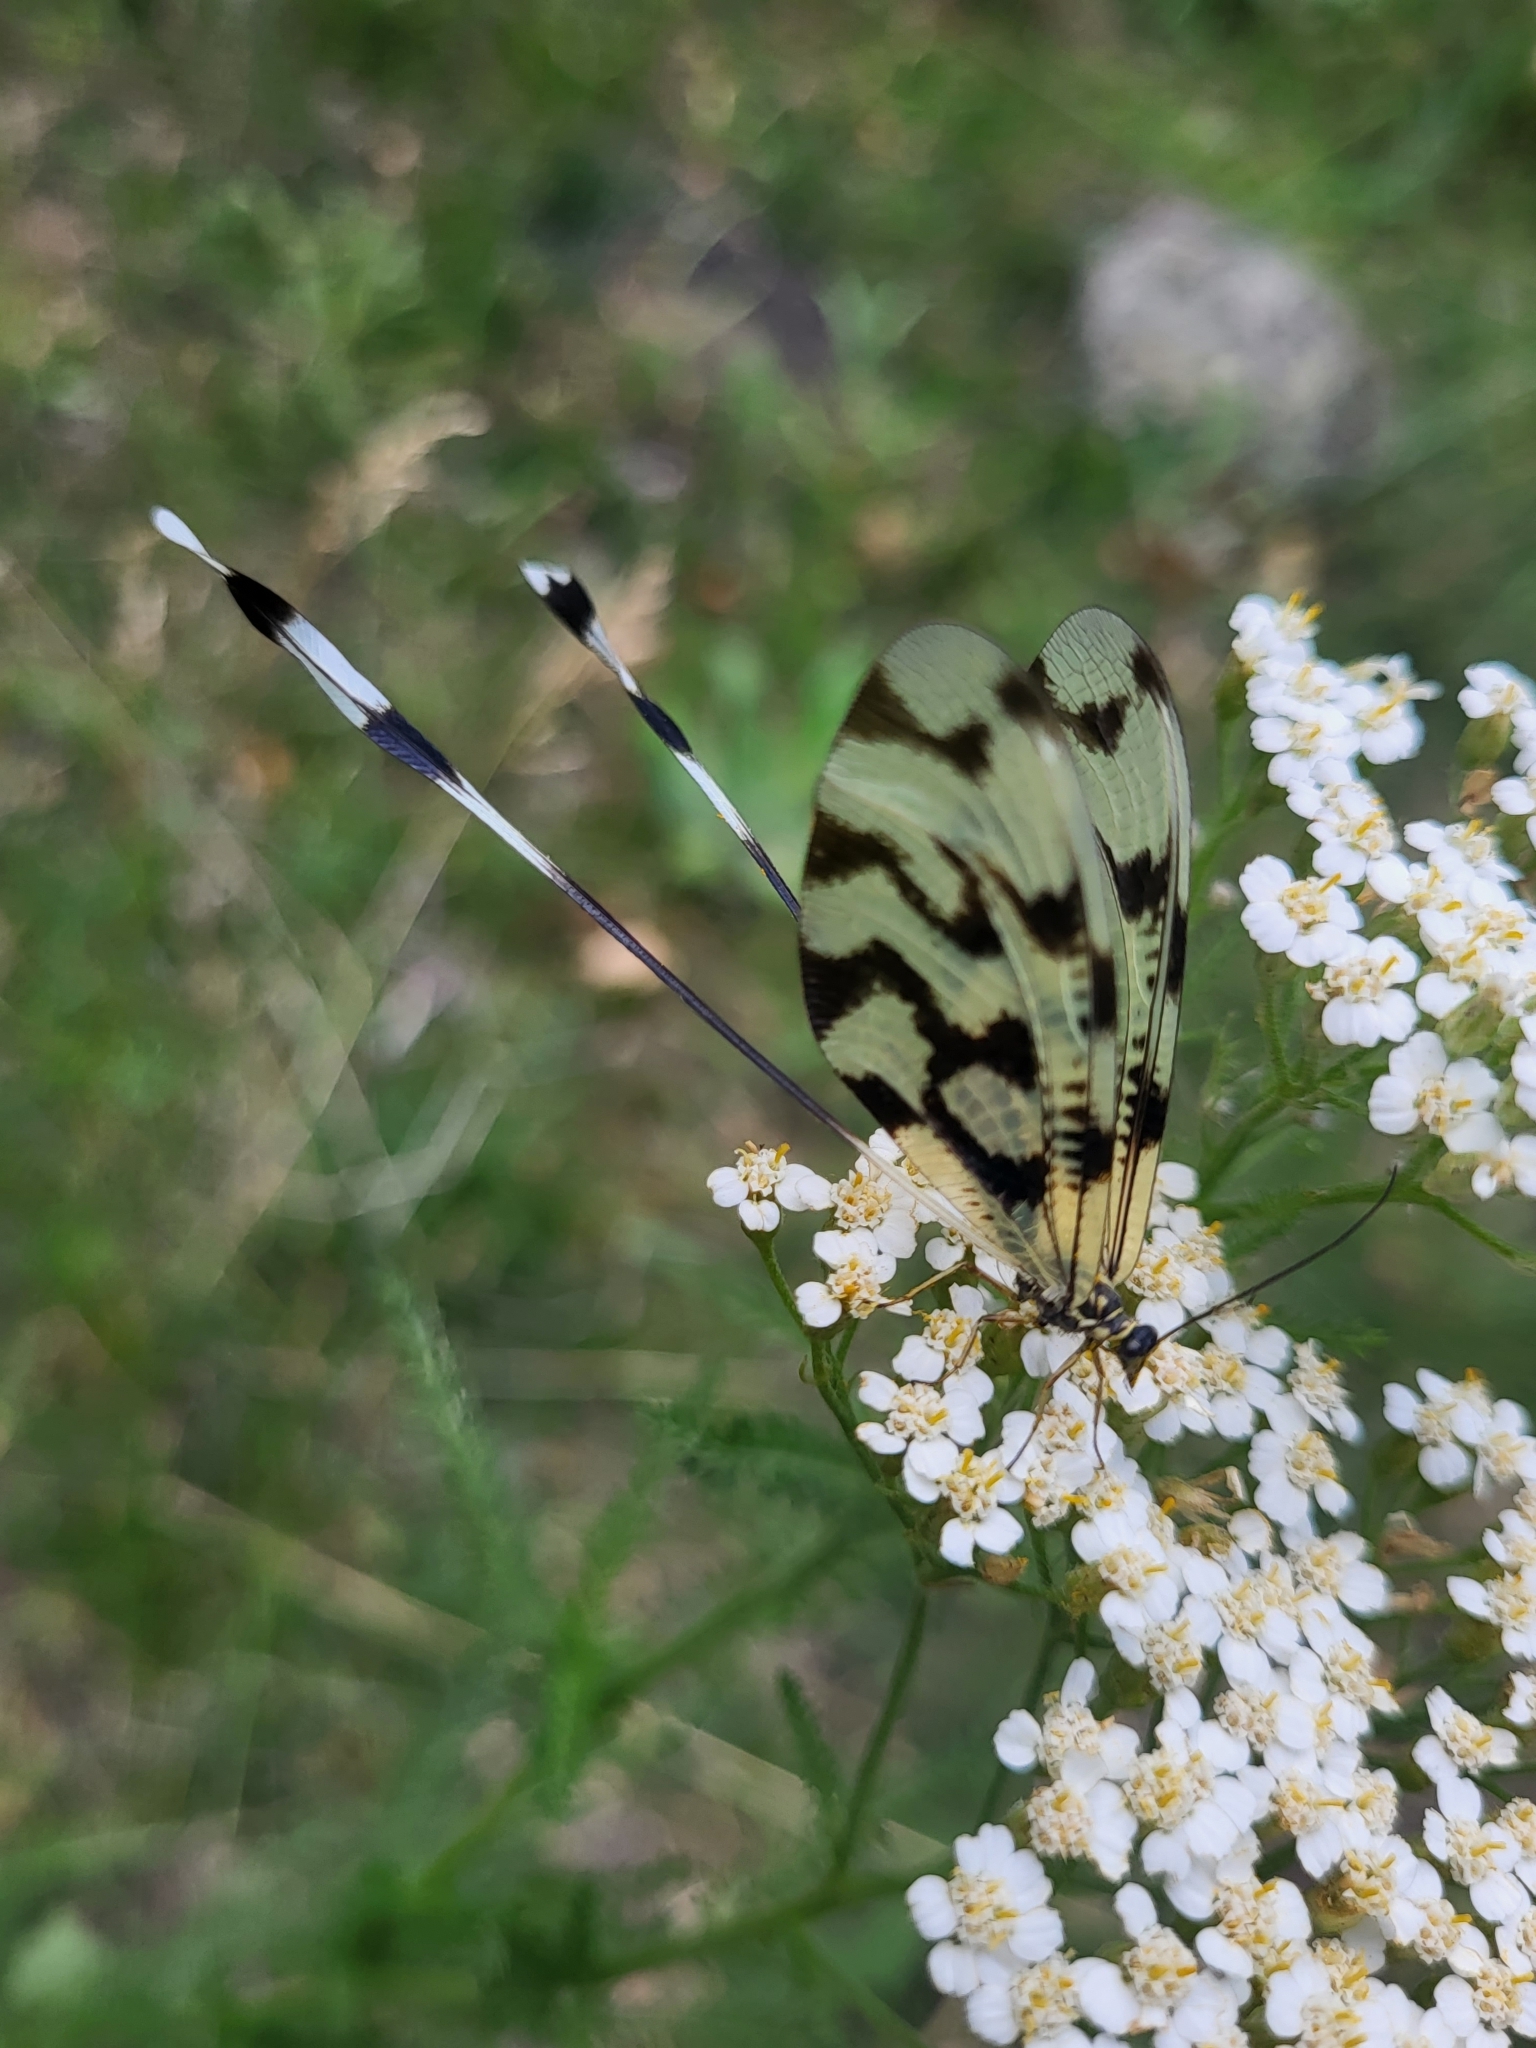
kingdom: Animalia
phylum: Arthropoda
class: Insecta
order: Neuroptera
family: Nemopteridae
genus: Nemoptera
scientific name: Nemoptera sinuata
